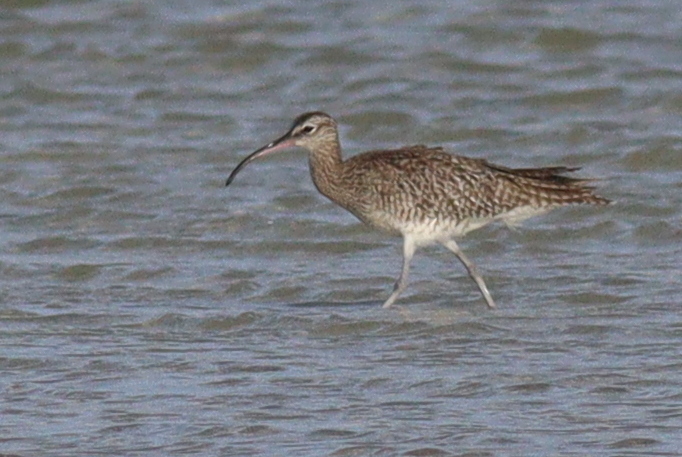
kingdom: Animalia
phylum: Chordata
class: Aves
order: Charadriiformes
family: Scolopacidae
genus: Numenius
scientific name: Numenius phaeopus
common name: Whimbrel
